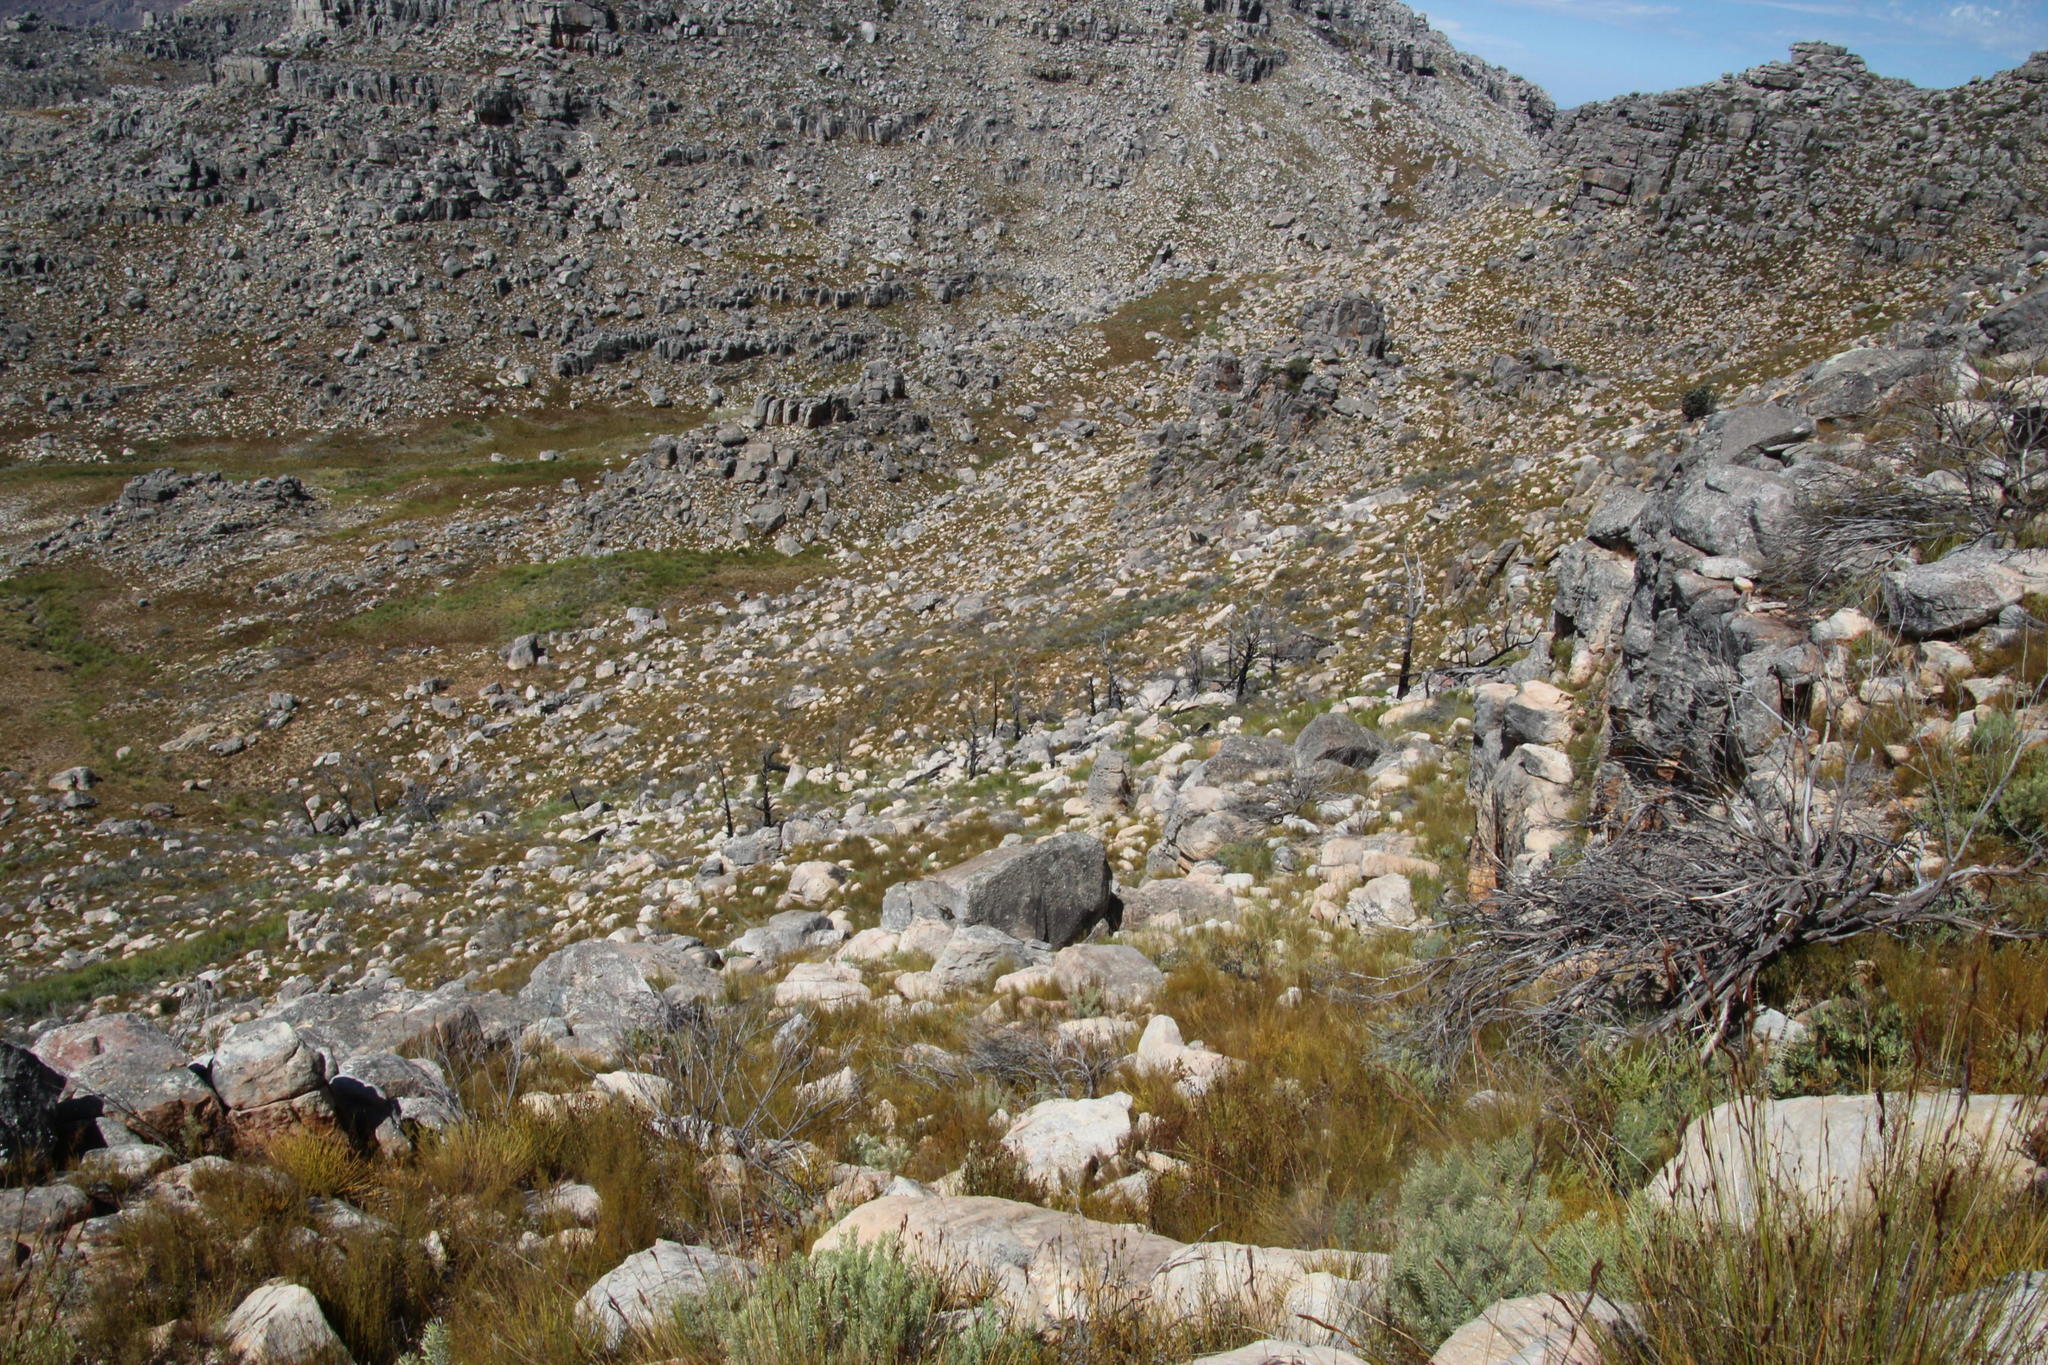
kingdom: Plantae
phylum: Tracheophyta
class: Pinopsida
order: Pinales
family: Cupressaceae
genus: Widdringtonia
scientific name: Widdringtonia nodiflora
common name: Cape cypress
